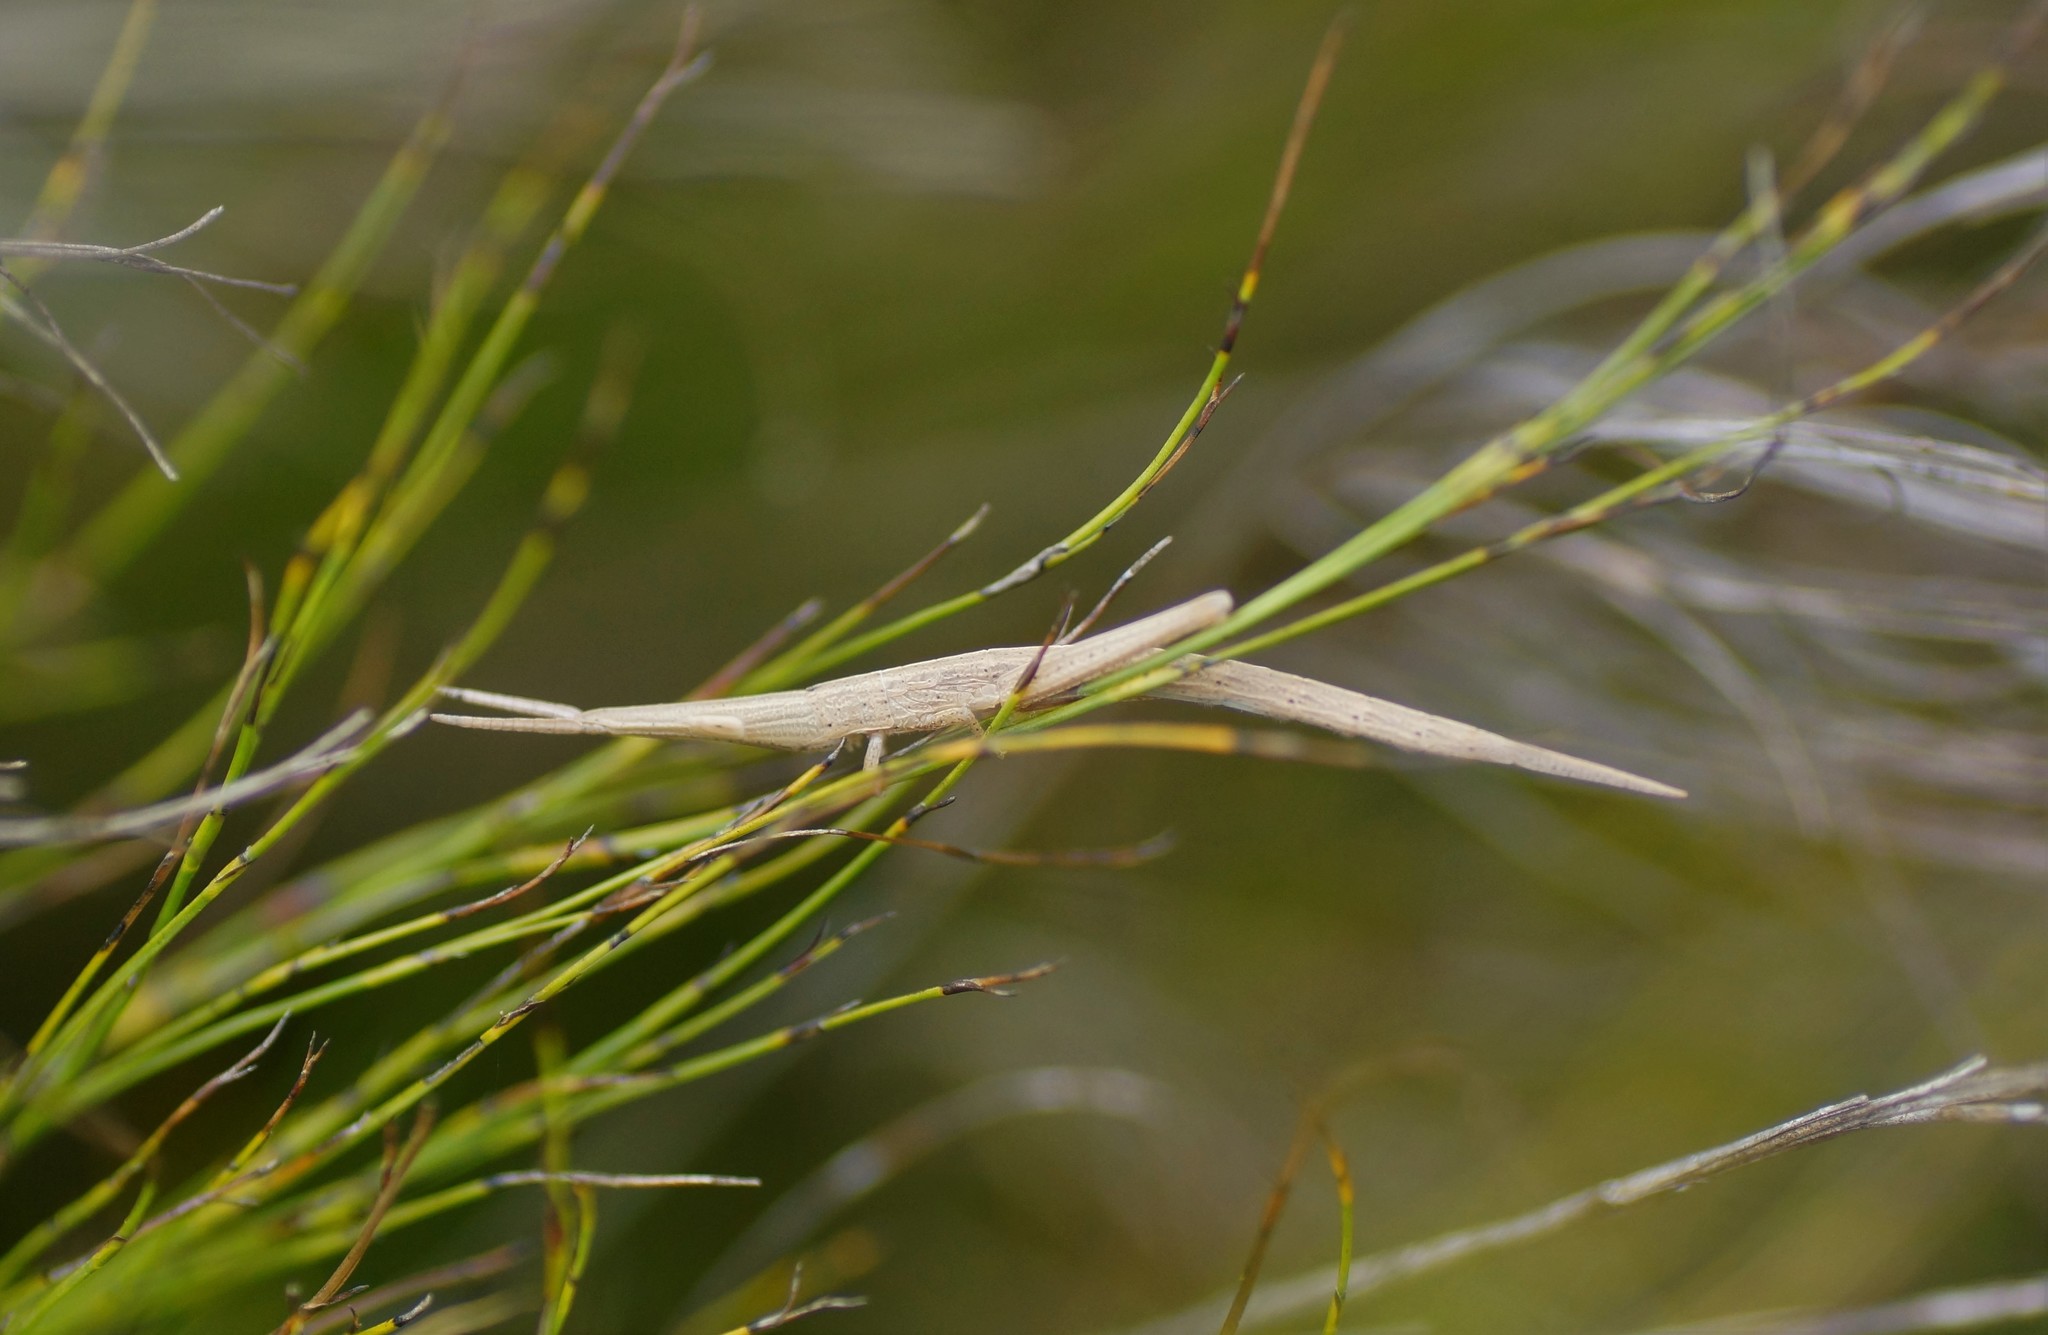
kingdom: Animalia
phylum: Arthropoda
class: Insecta
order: Orthoptera
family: Pyrgomorphidae
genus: Psednura
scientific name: Psednura pedestris
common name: Common psednura
